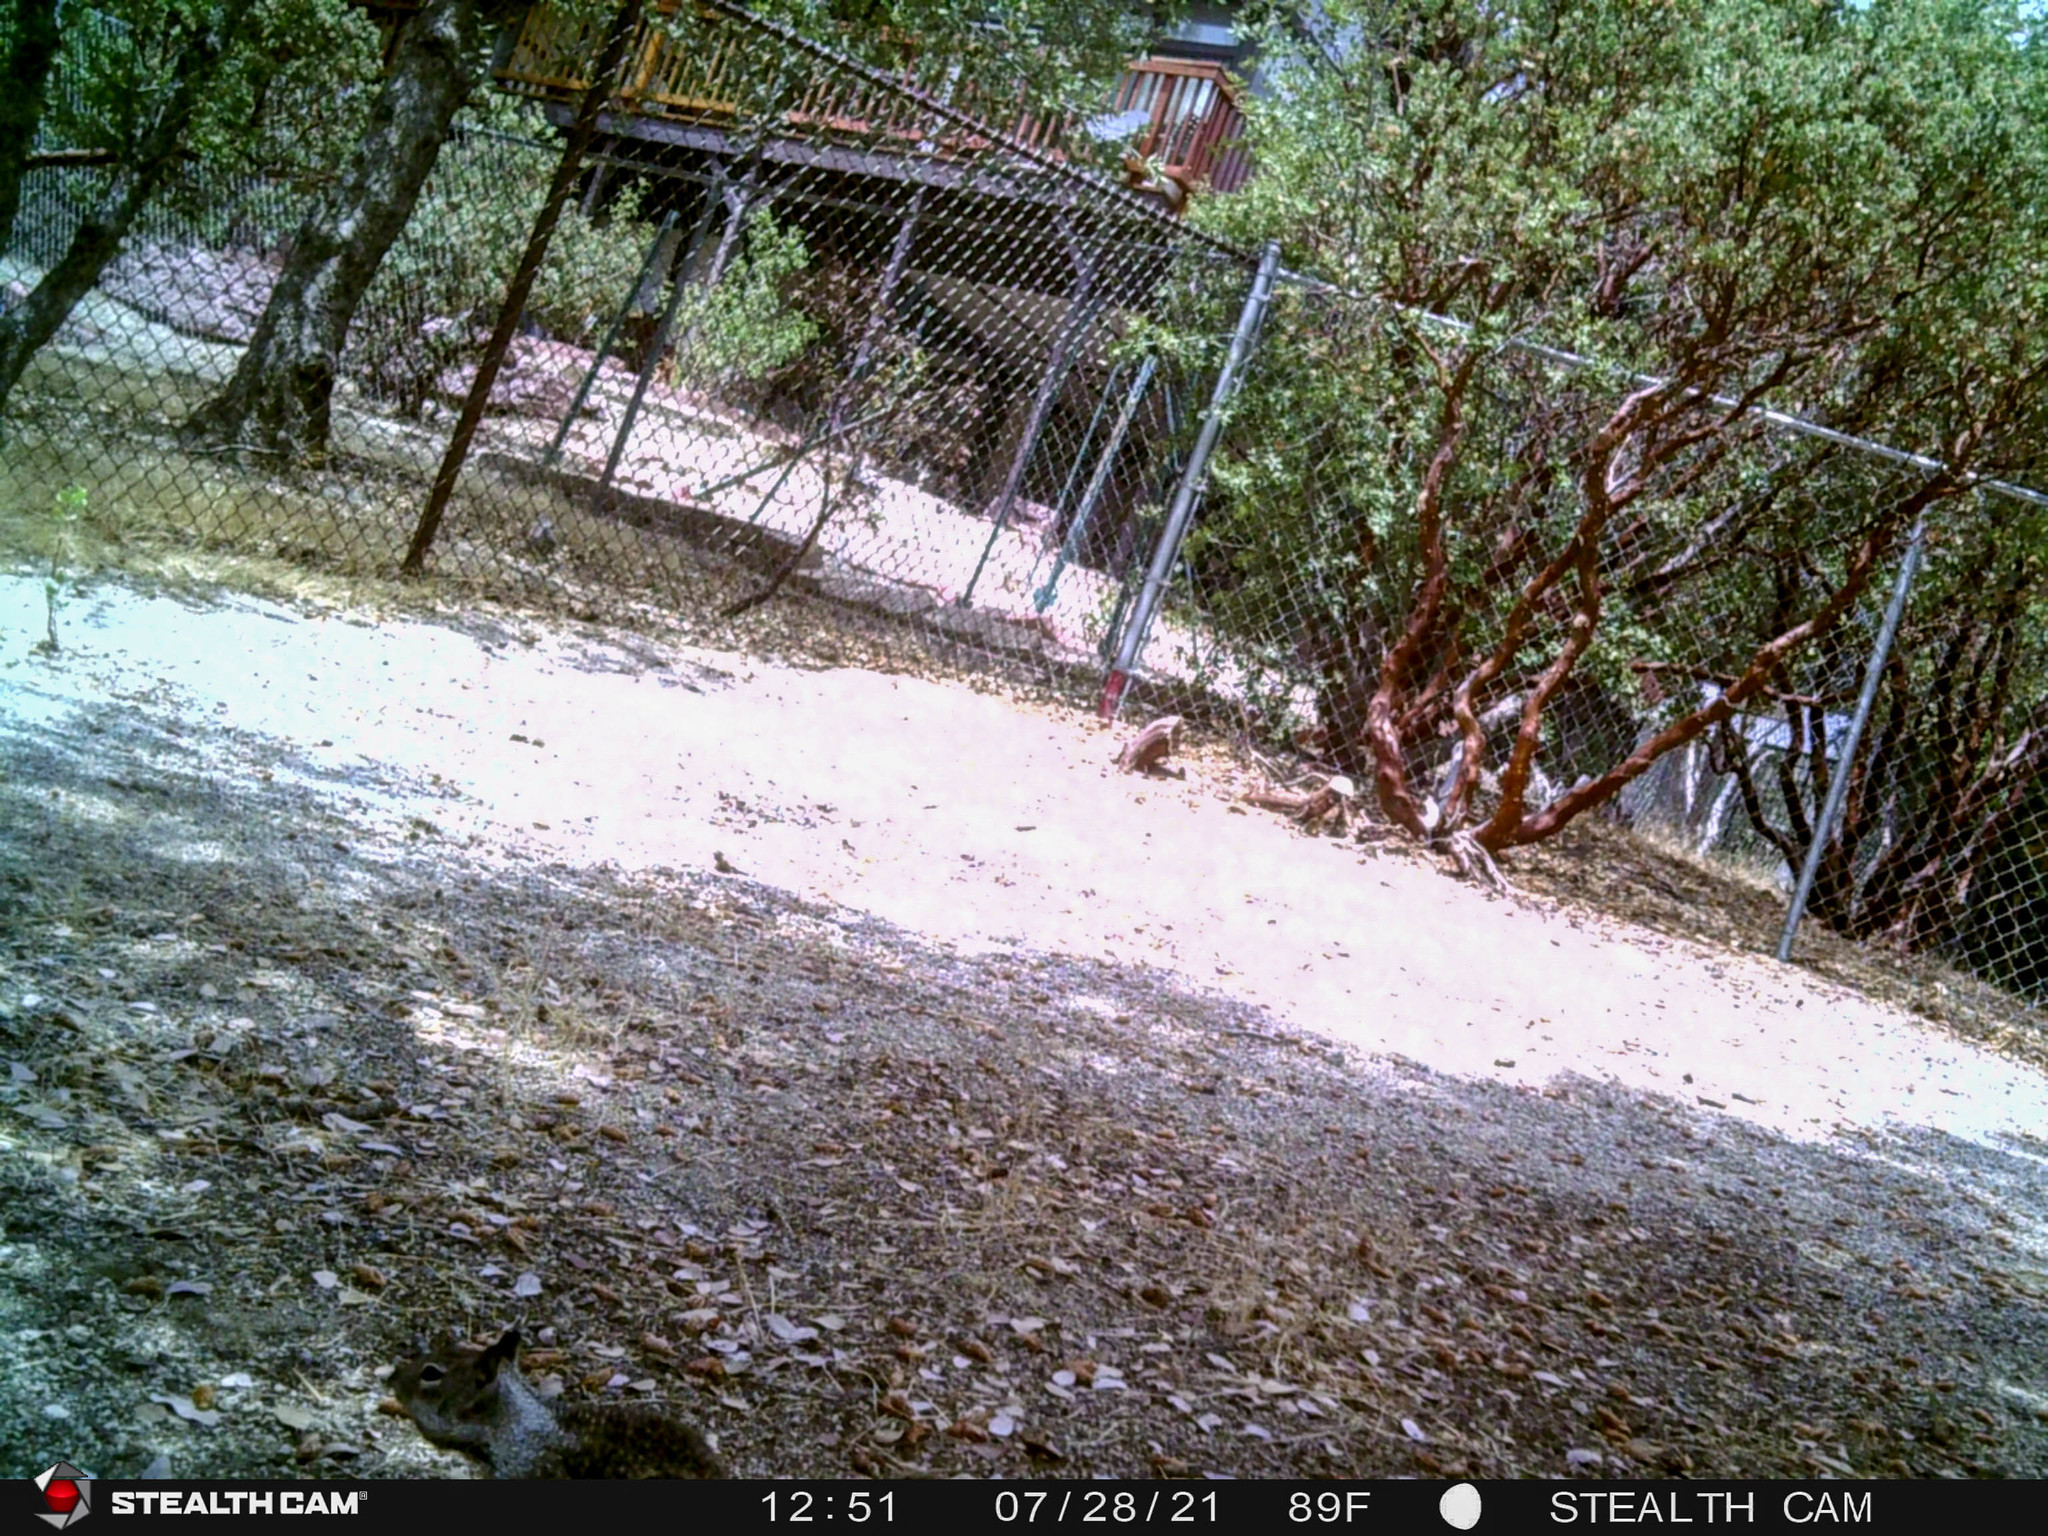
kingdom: Animalia
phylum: Chordata
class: Mammalia
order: Rodentia
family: Sciuridae
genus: Otospermophilus
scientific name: Otospermophilus beecheyi
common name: California ground squirrel
